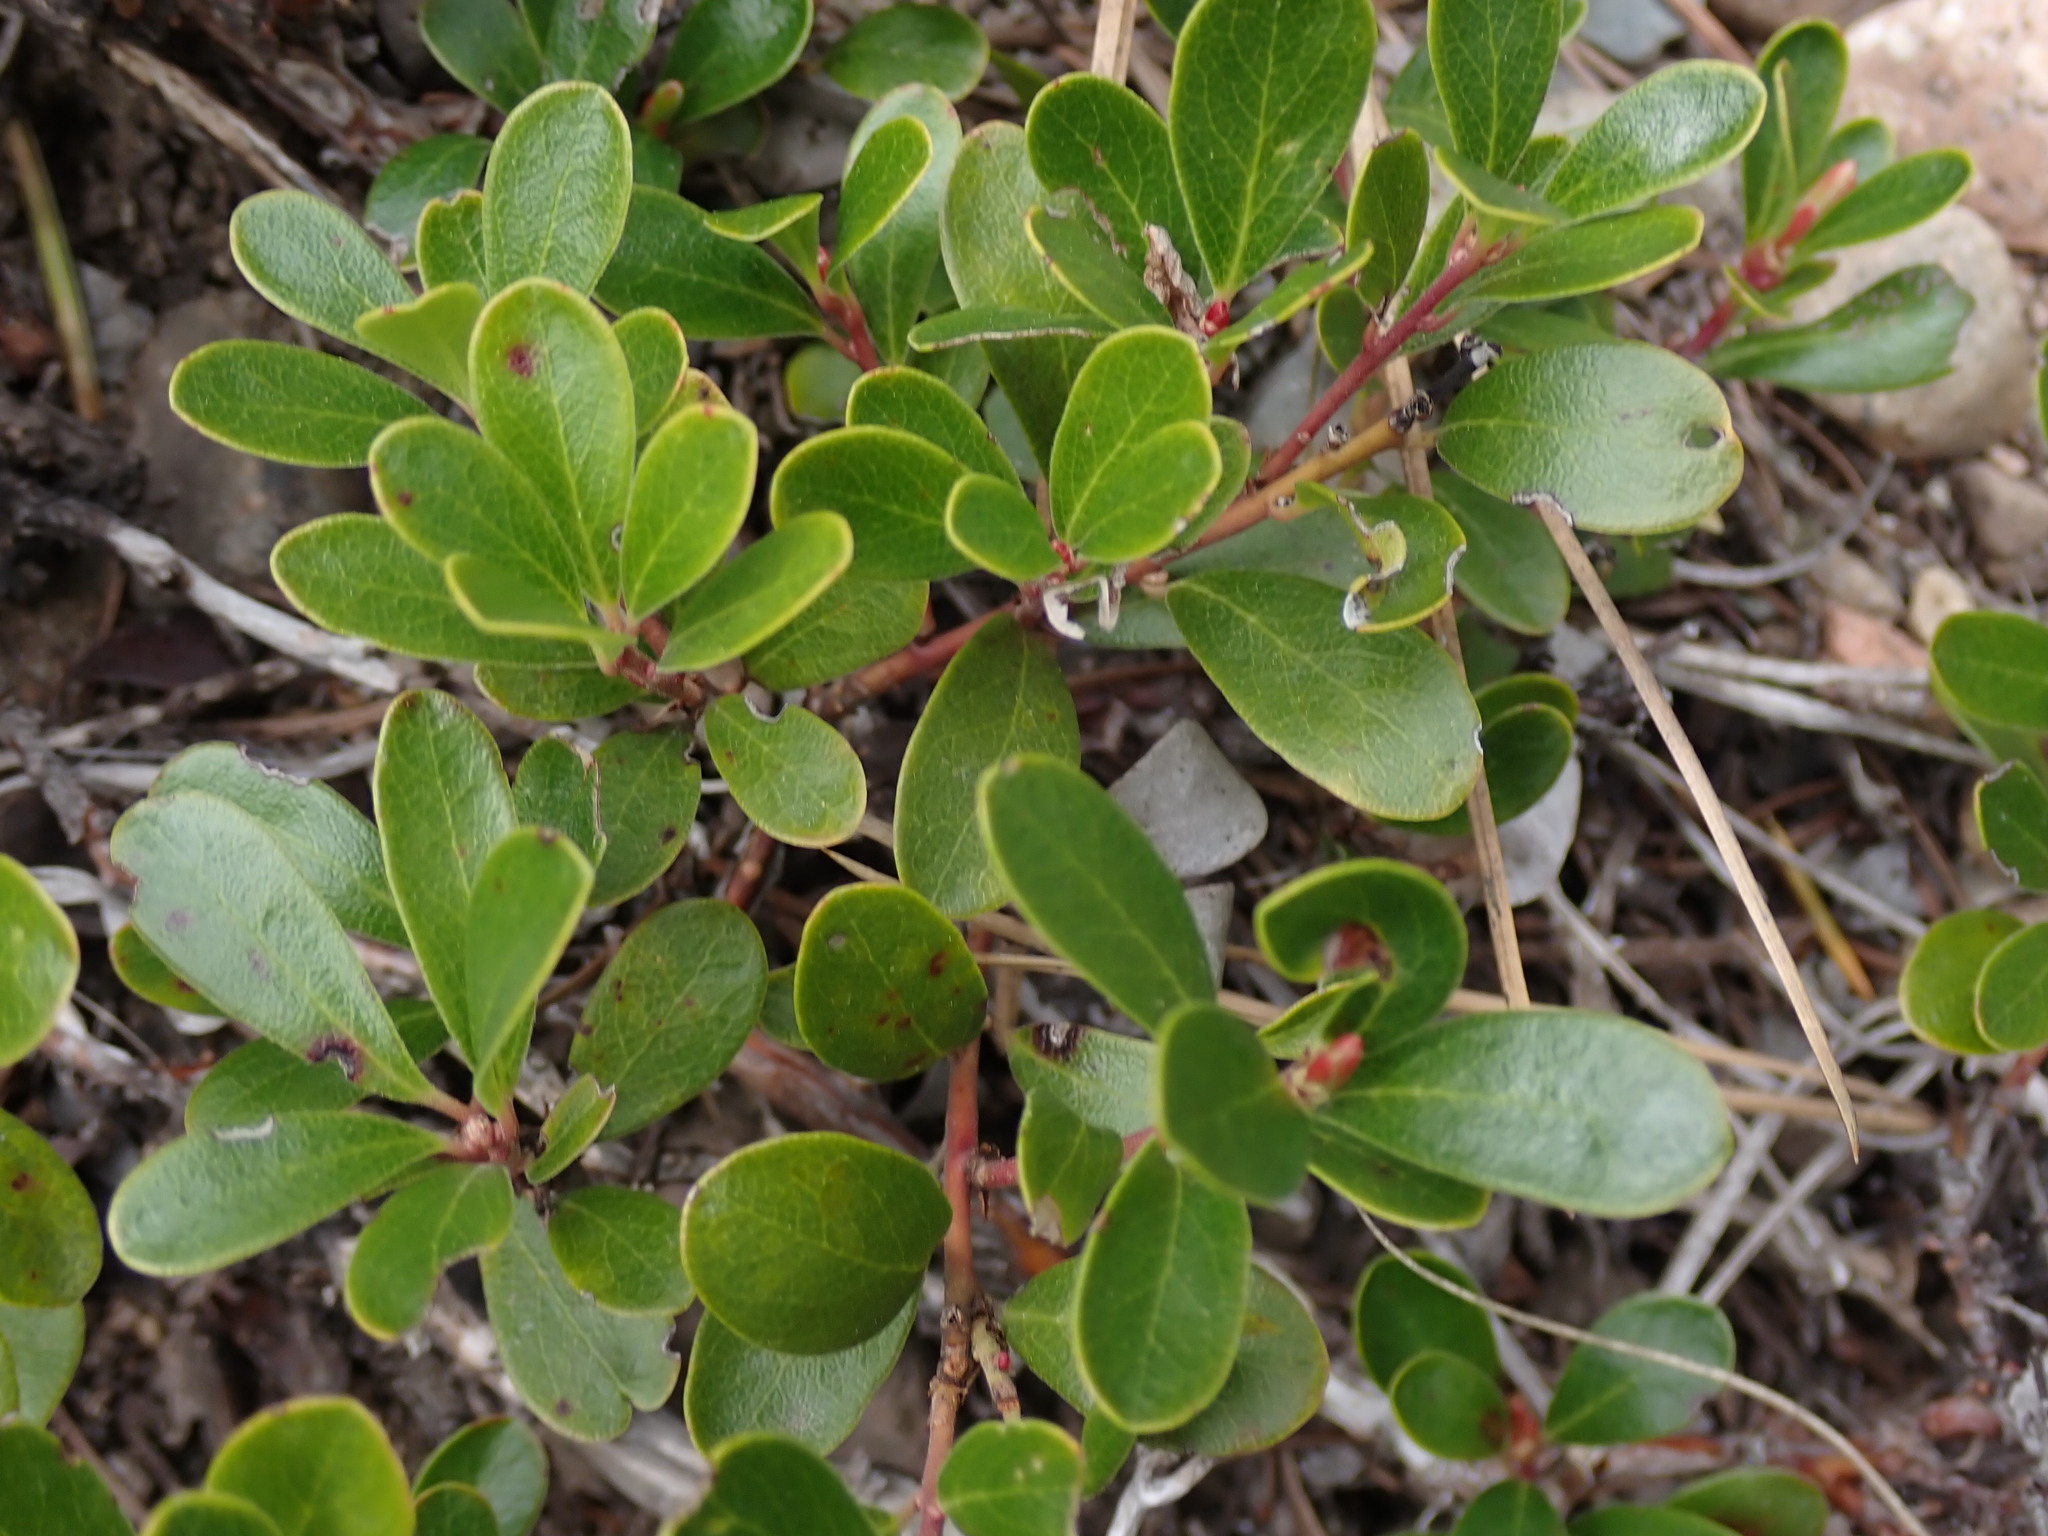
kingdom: Plantae
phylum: Tracheophyta
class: Magnoliopsida
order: Ericales
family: Ericaceae
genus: Arctostaphylos
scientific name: Arctostaphylos uva-ursi
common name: Bearberry
